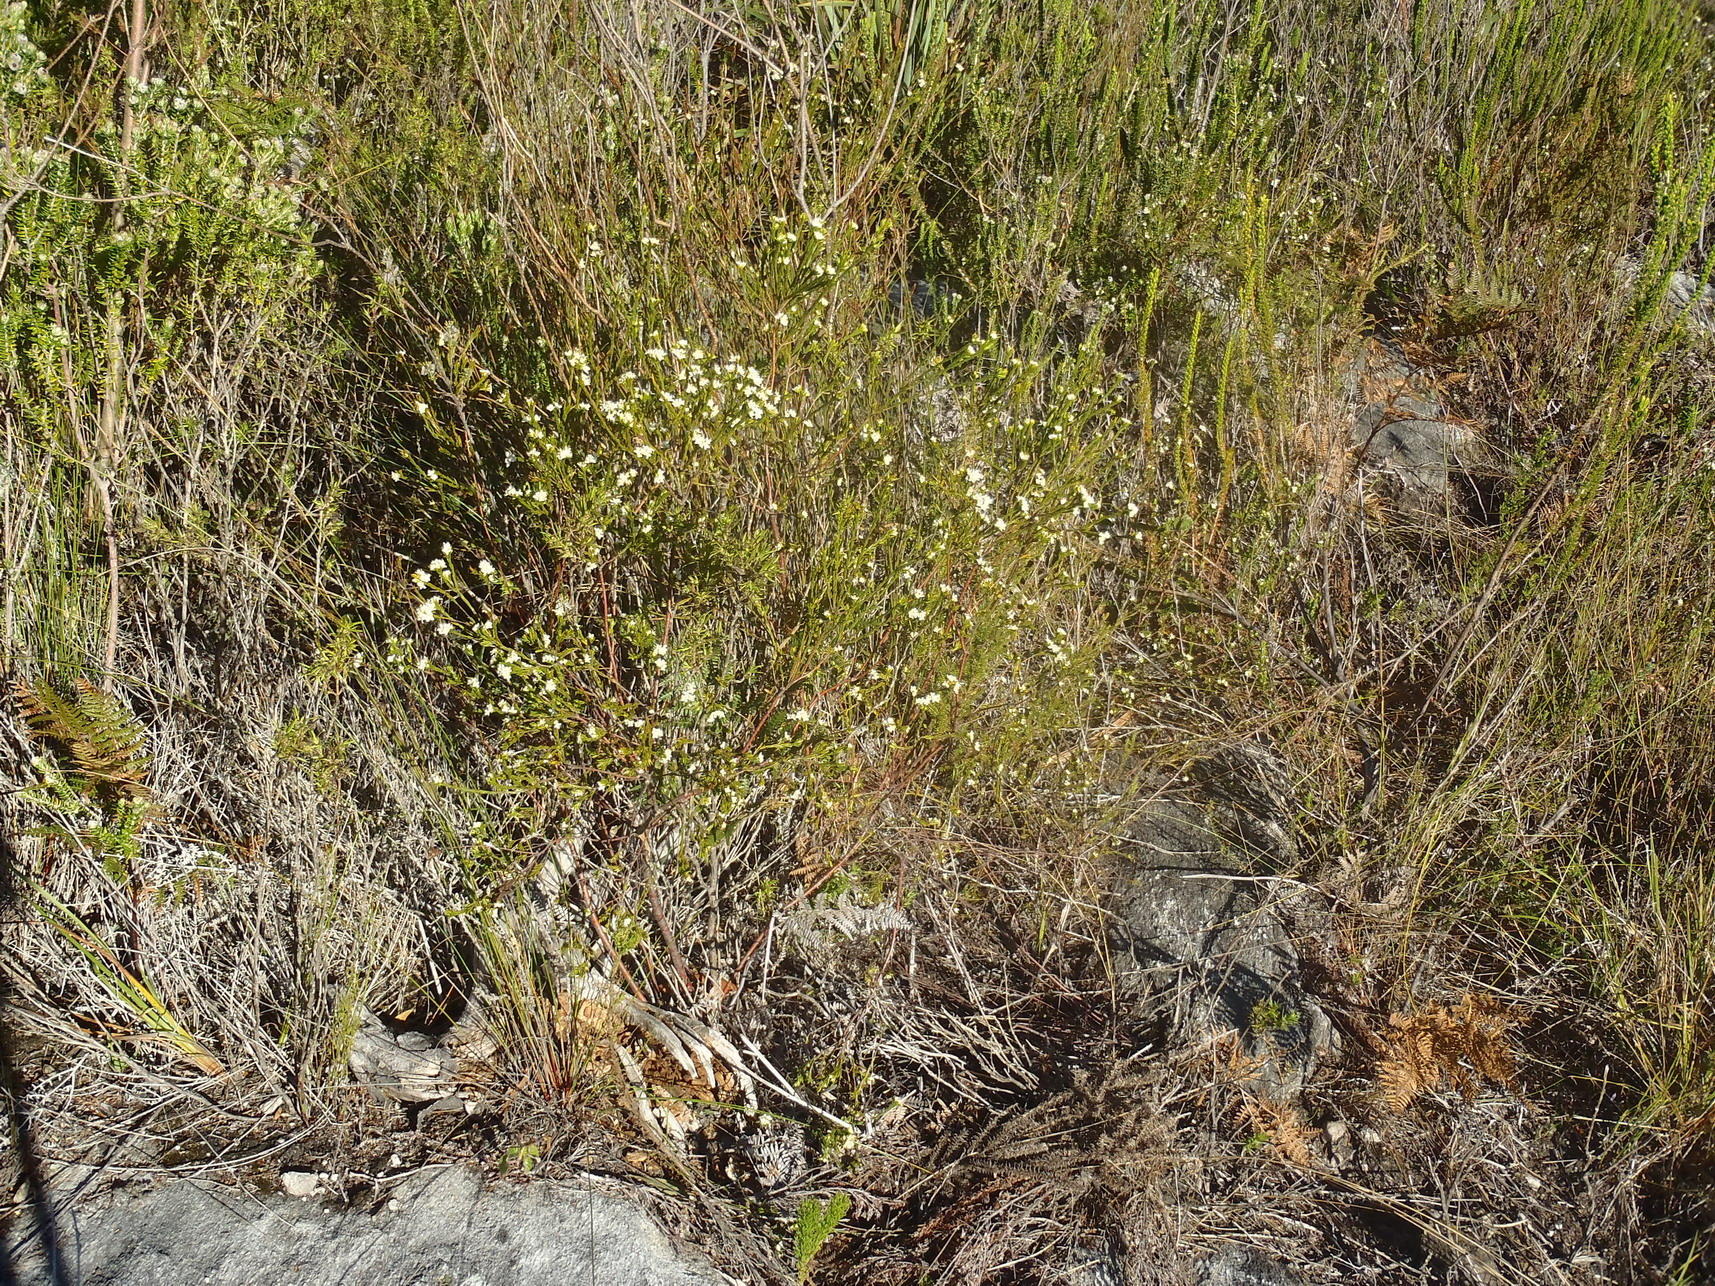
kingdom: Plantae
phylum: Tracheophyta
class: Magnoliopsida
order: Malvales
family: Thymelaeaceae
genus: Lachnaea
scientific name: Lachnaea diosmoides
